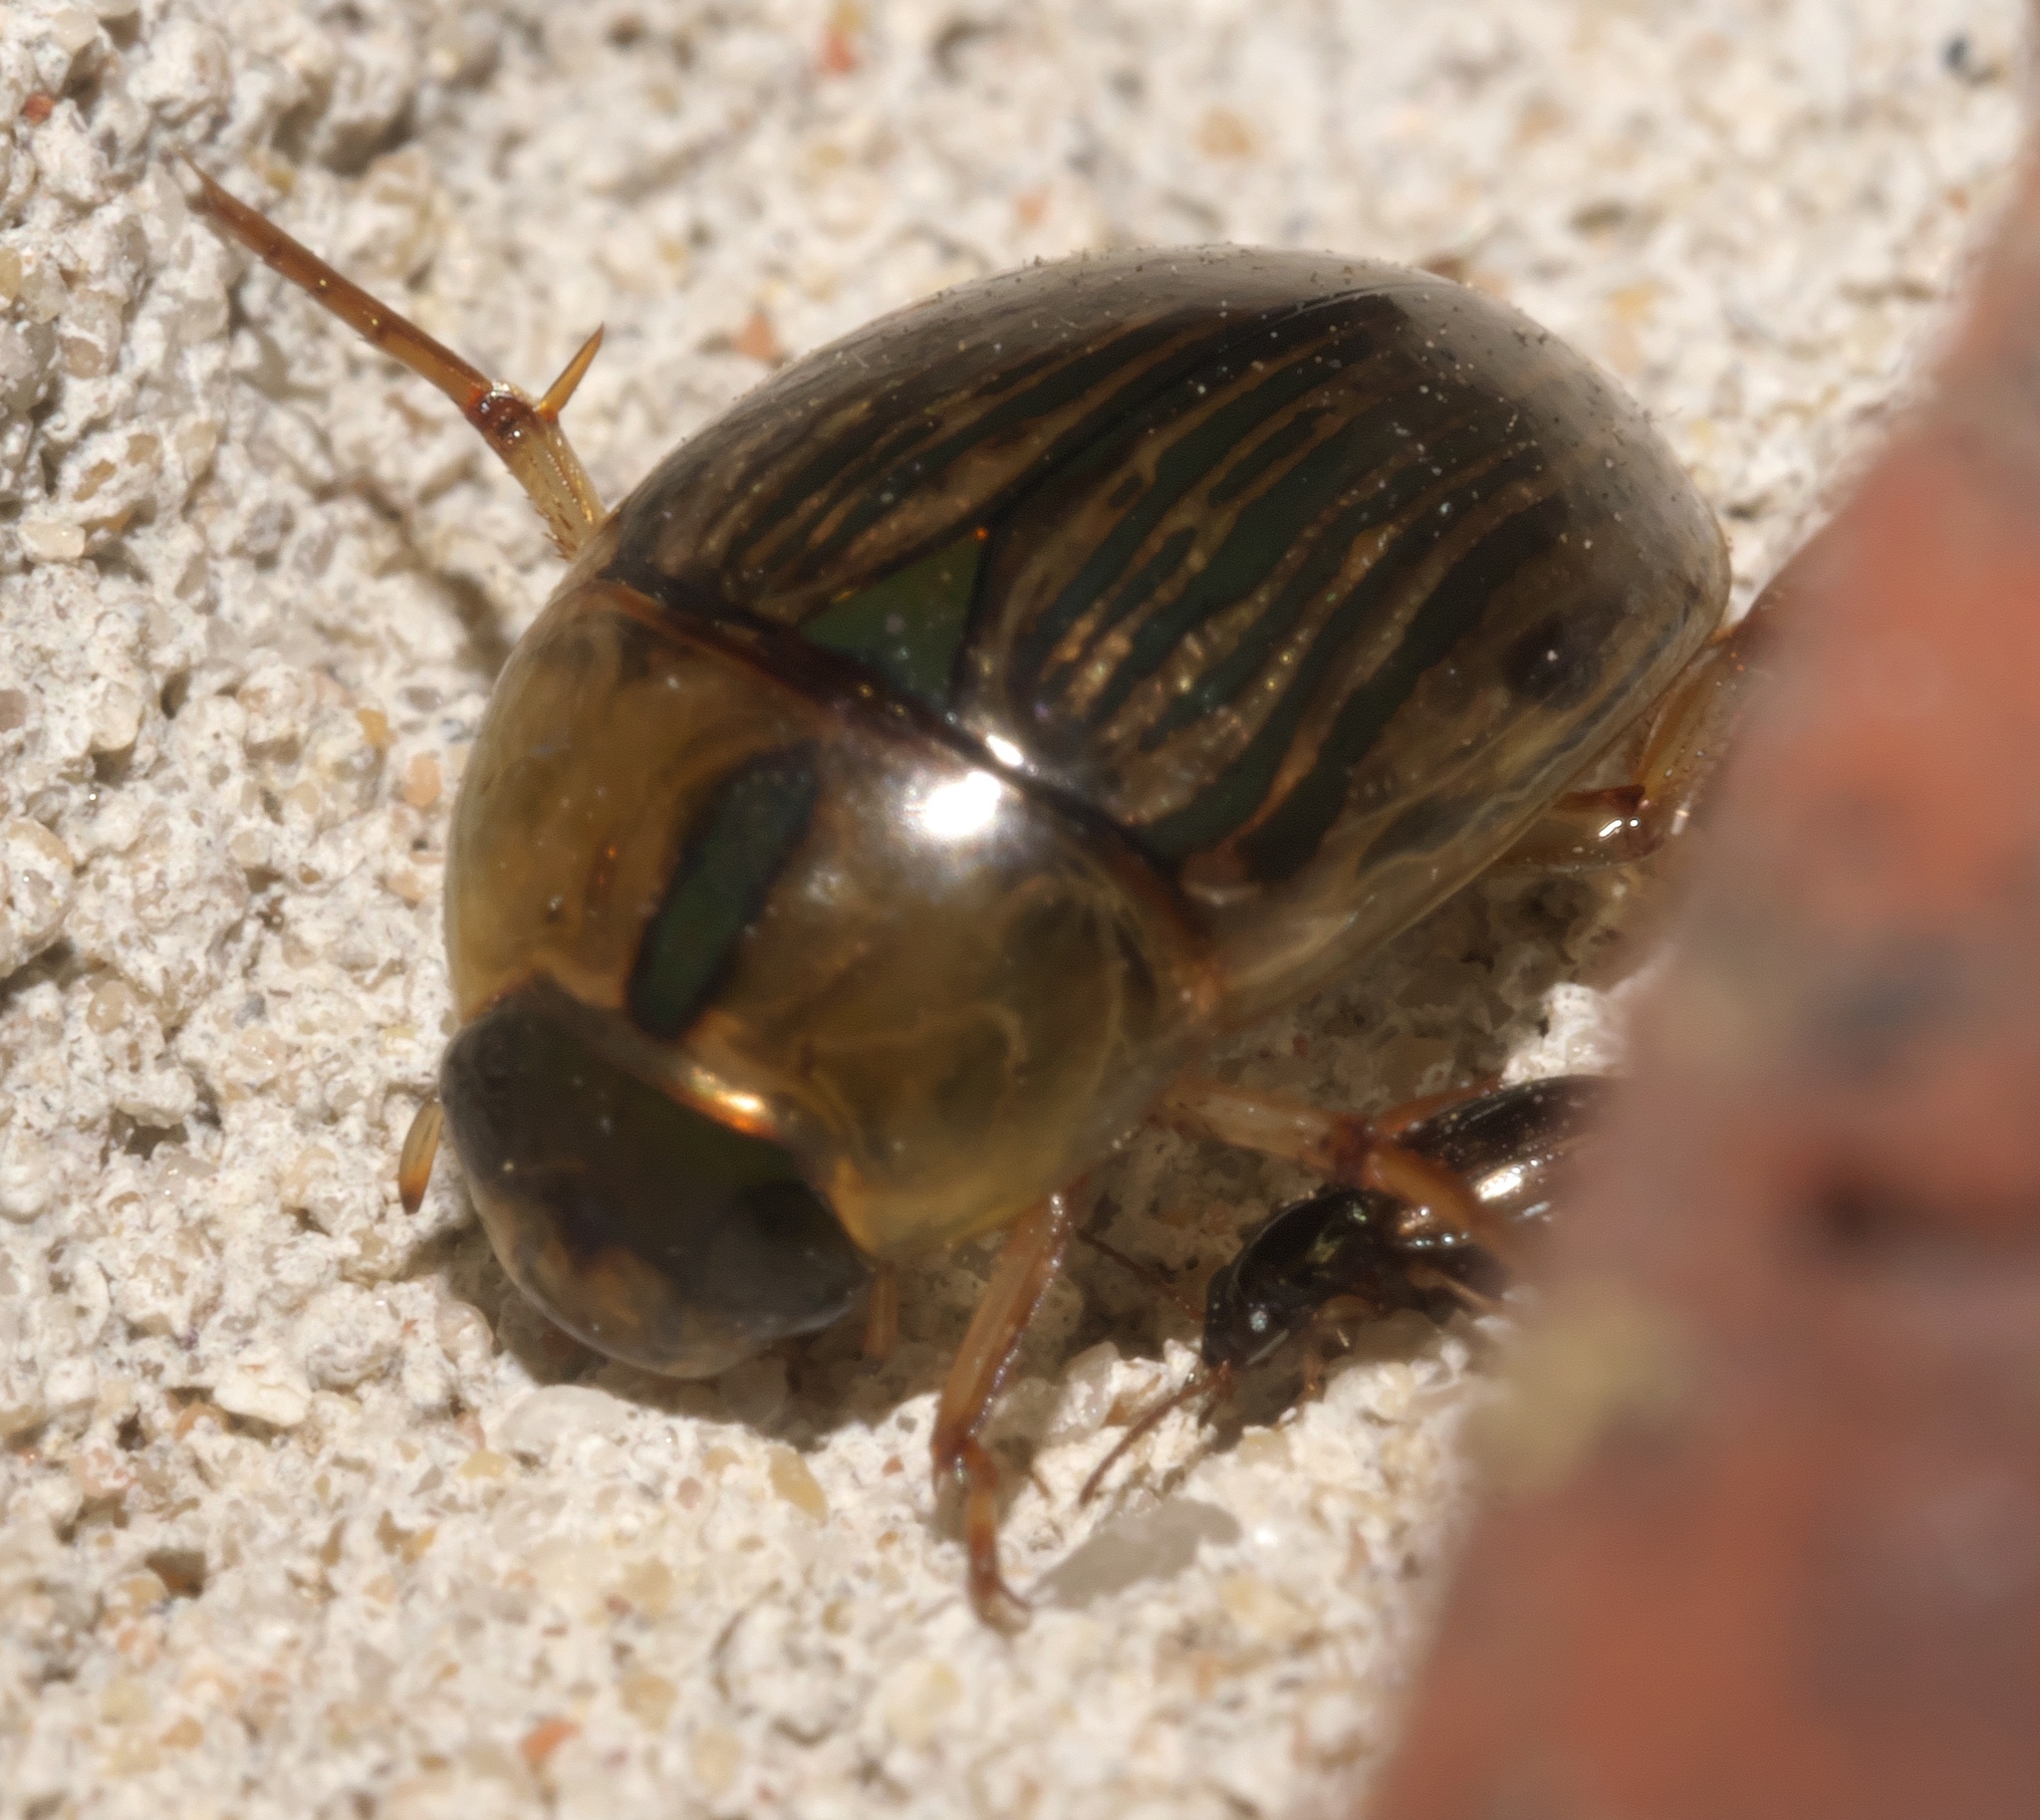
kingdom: Animalia
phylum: Arthropoda
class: Insecta
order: Coleoptera
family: Hydrophilidae
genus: Tropisternus
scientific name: Tropisternus collaris
